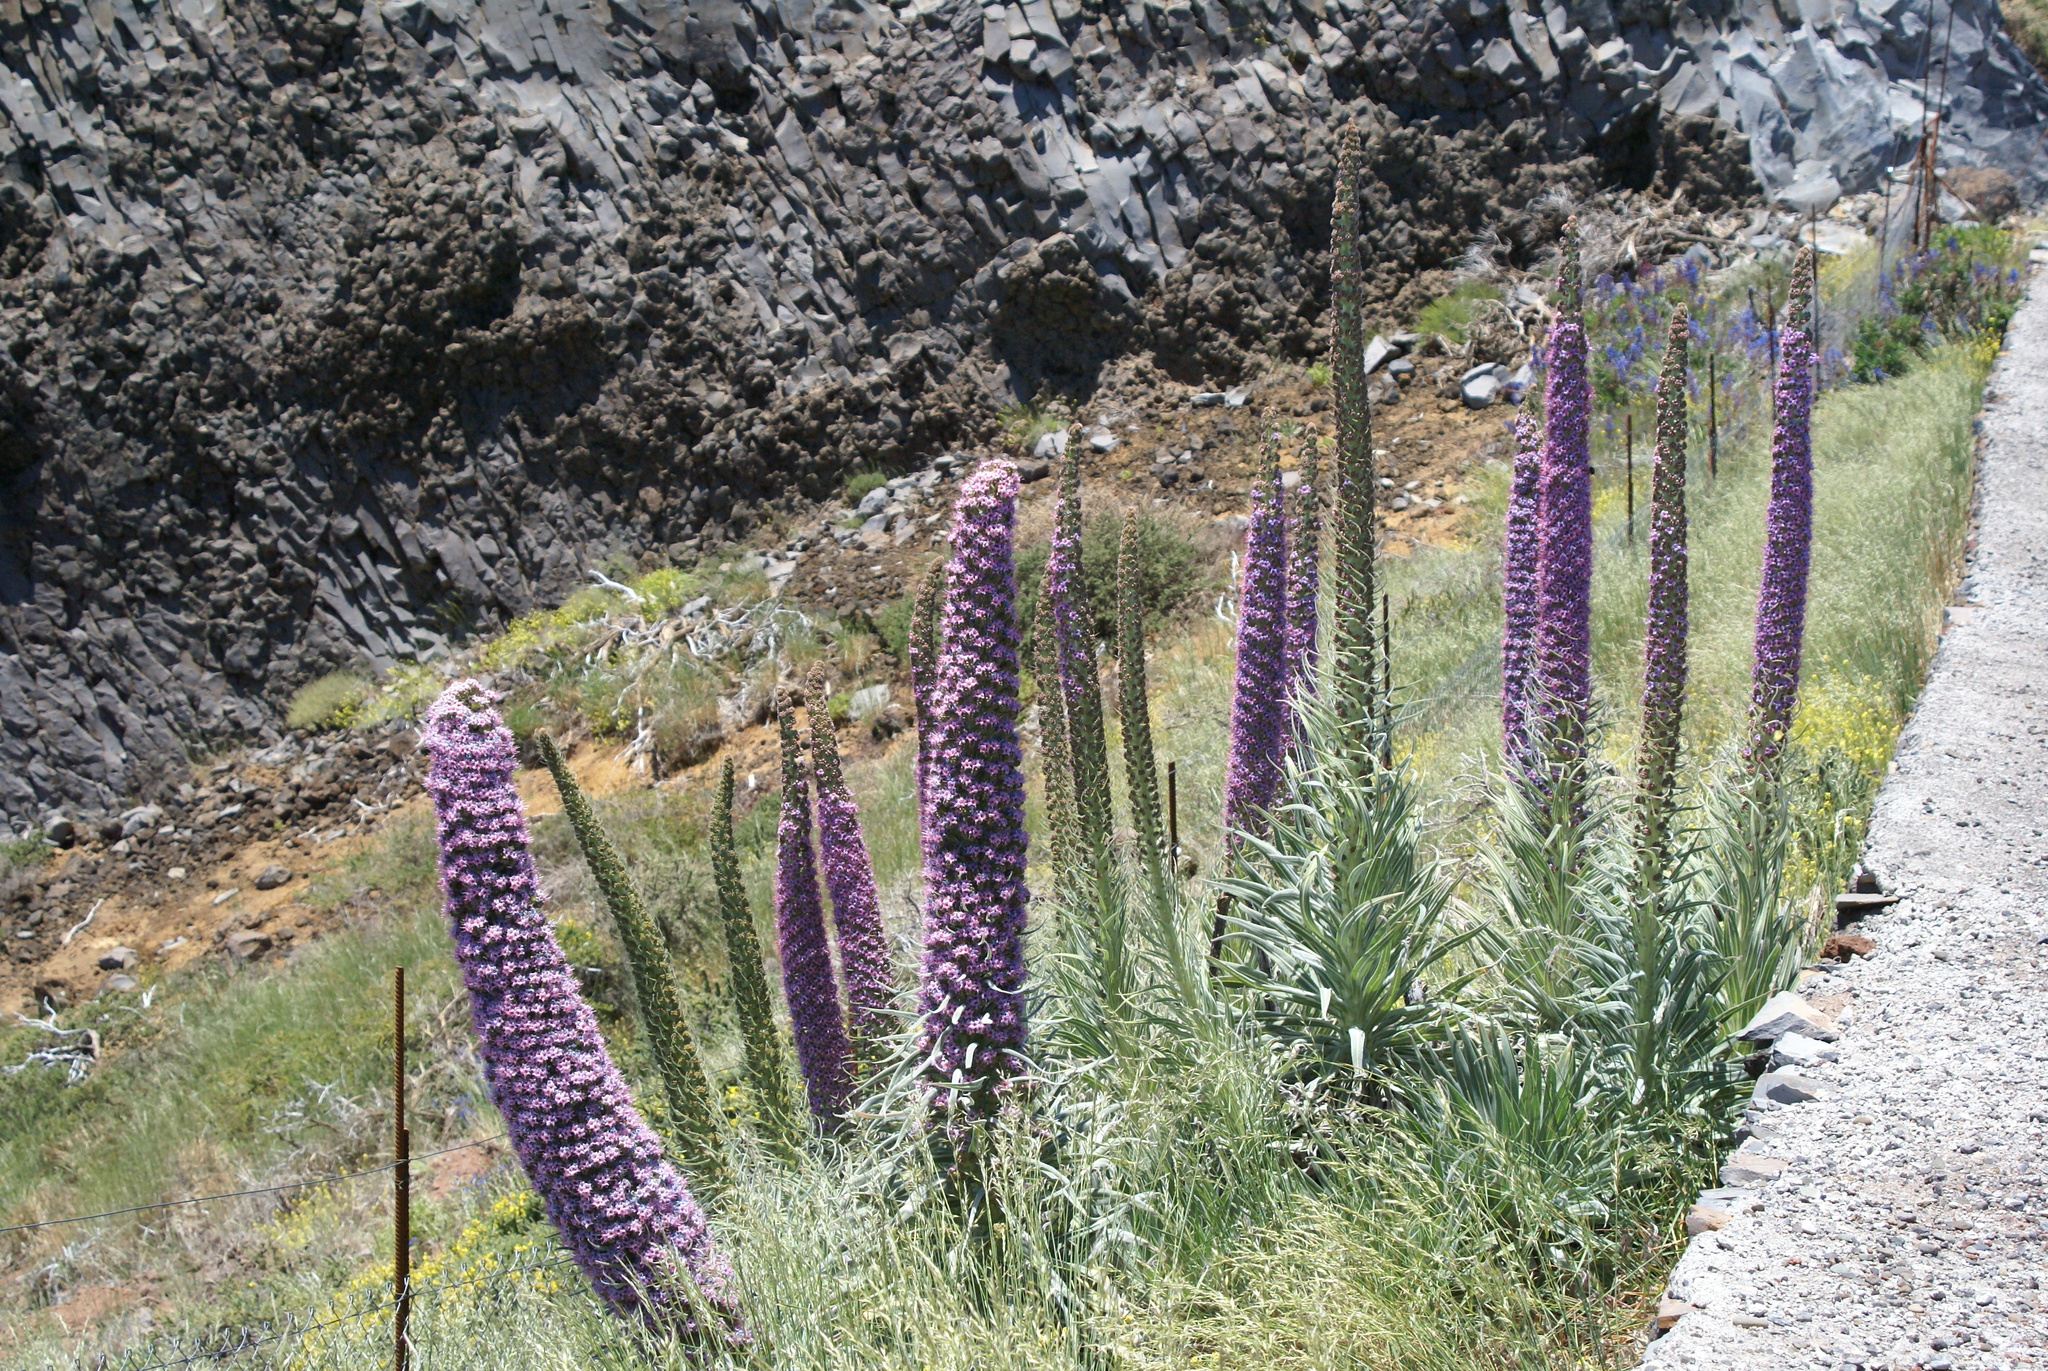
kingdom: Plantae
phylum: Tracheophyta
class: Magnoliopsida
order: Boraginales
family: Boraginaceae
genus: Echium
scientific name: Echium perezii
